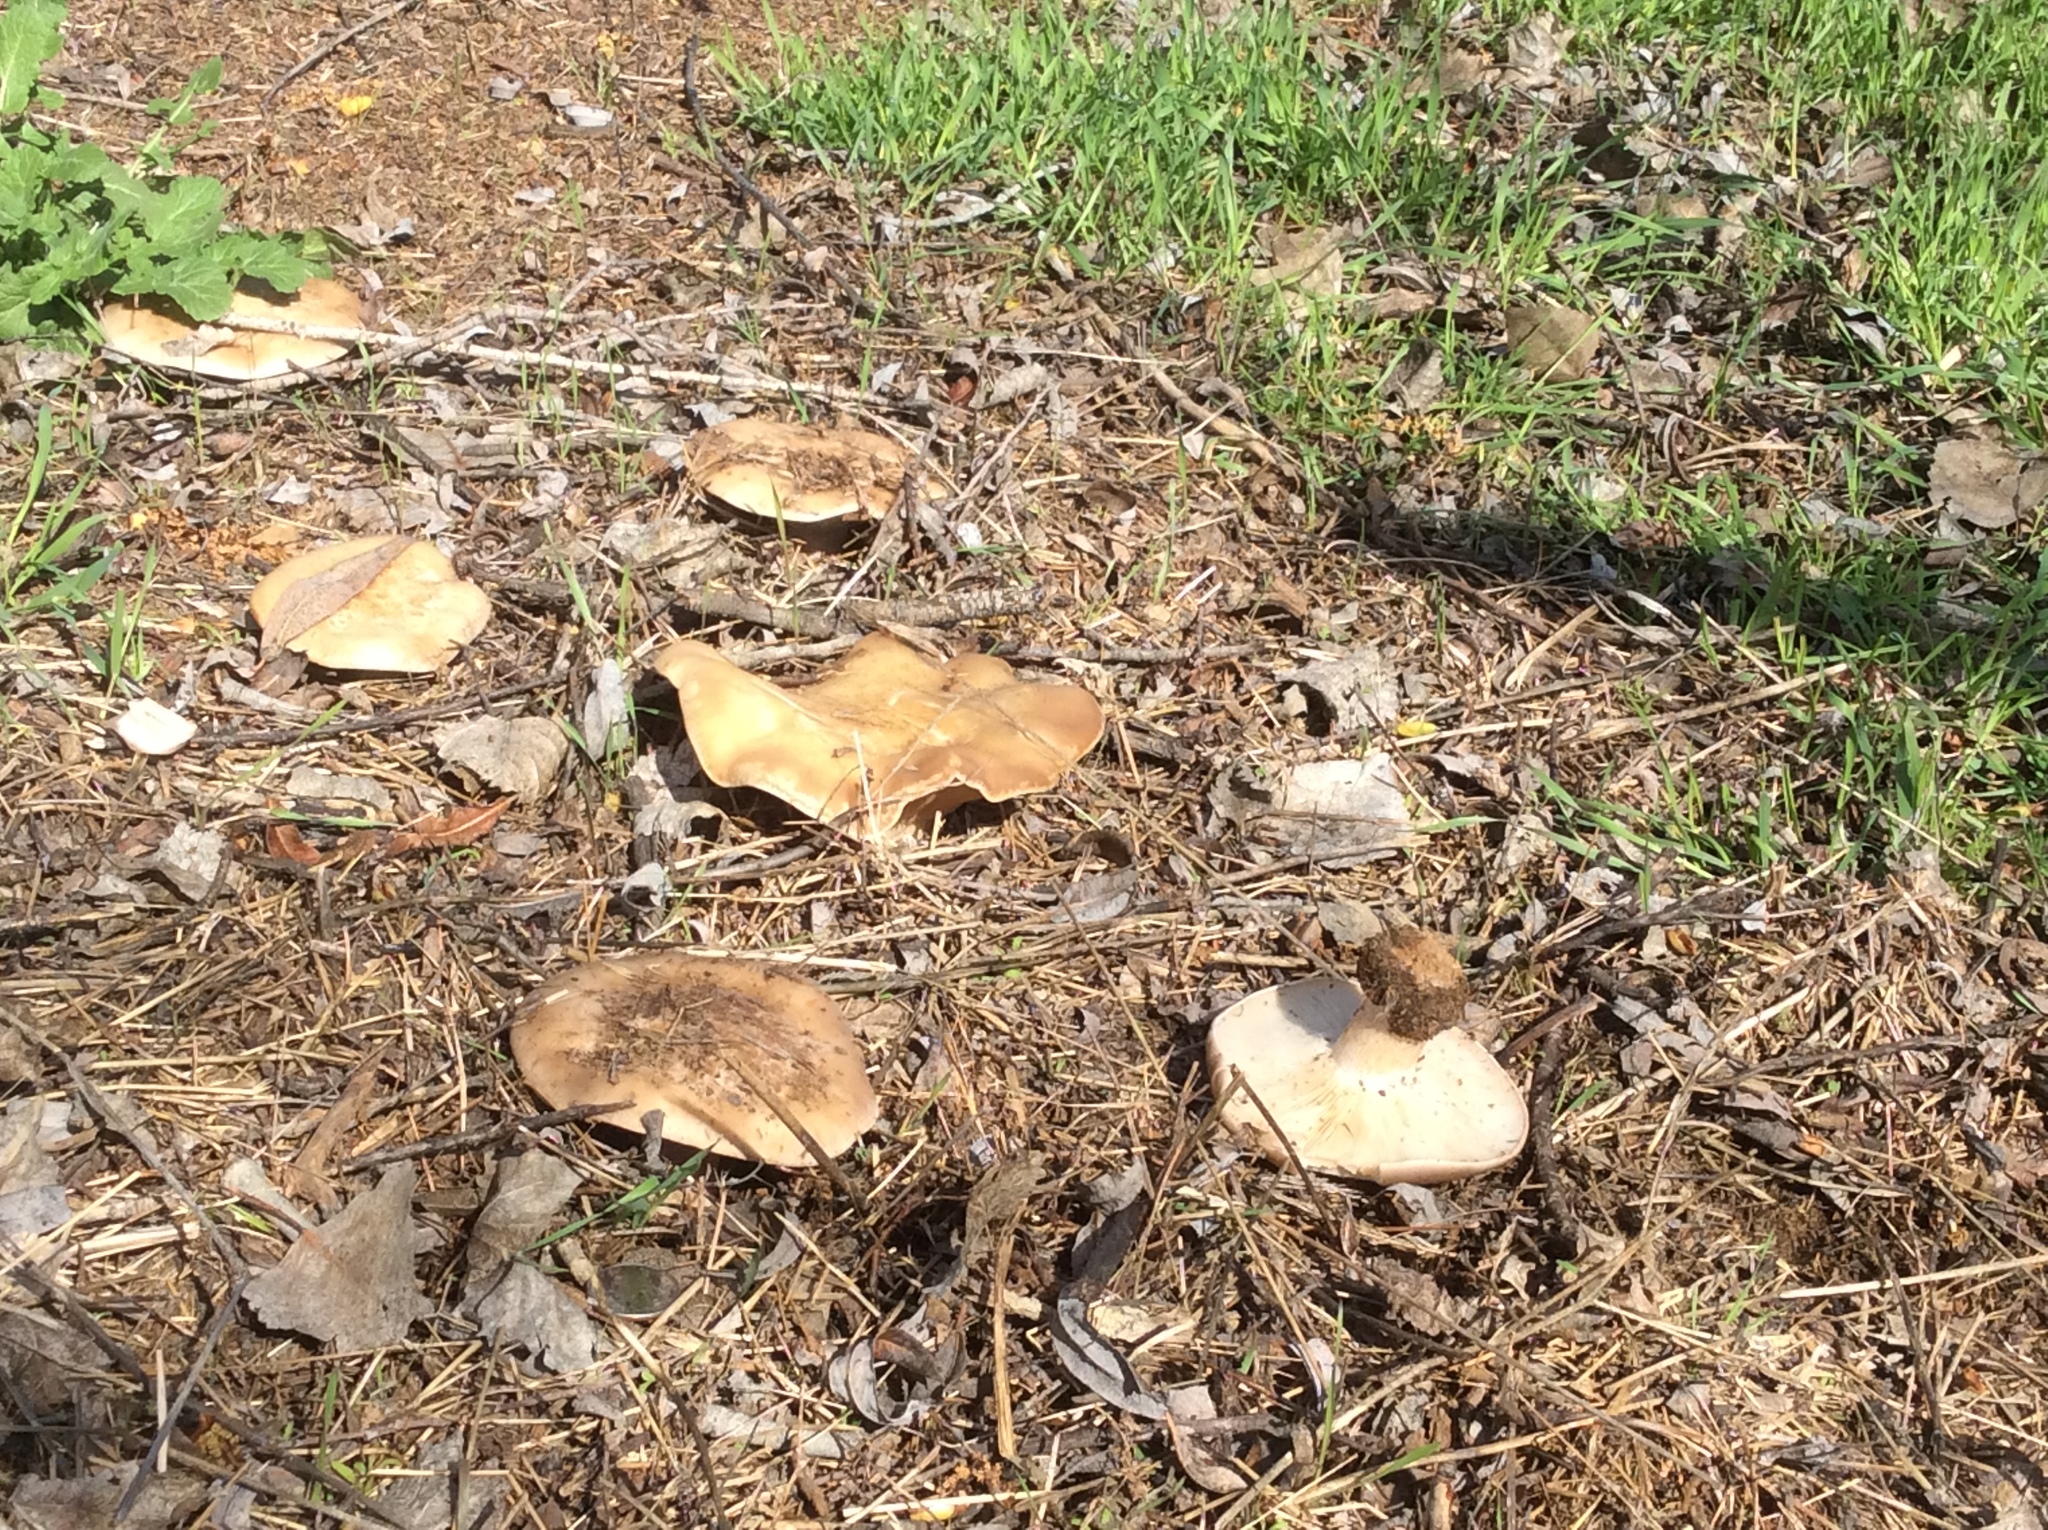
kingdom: Fungi
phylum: Basidiomycota
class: Agaricomycetes
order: Agaricales
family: Tricholomataceae
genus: Collybia
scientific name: Collybia
